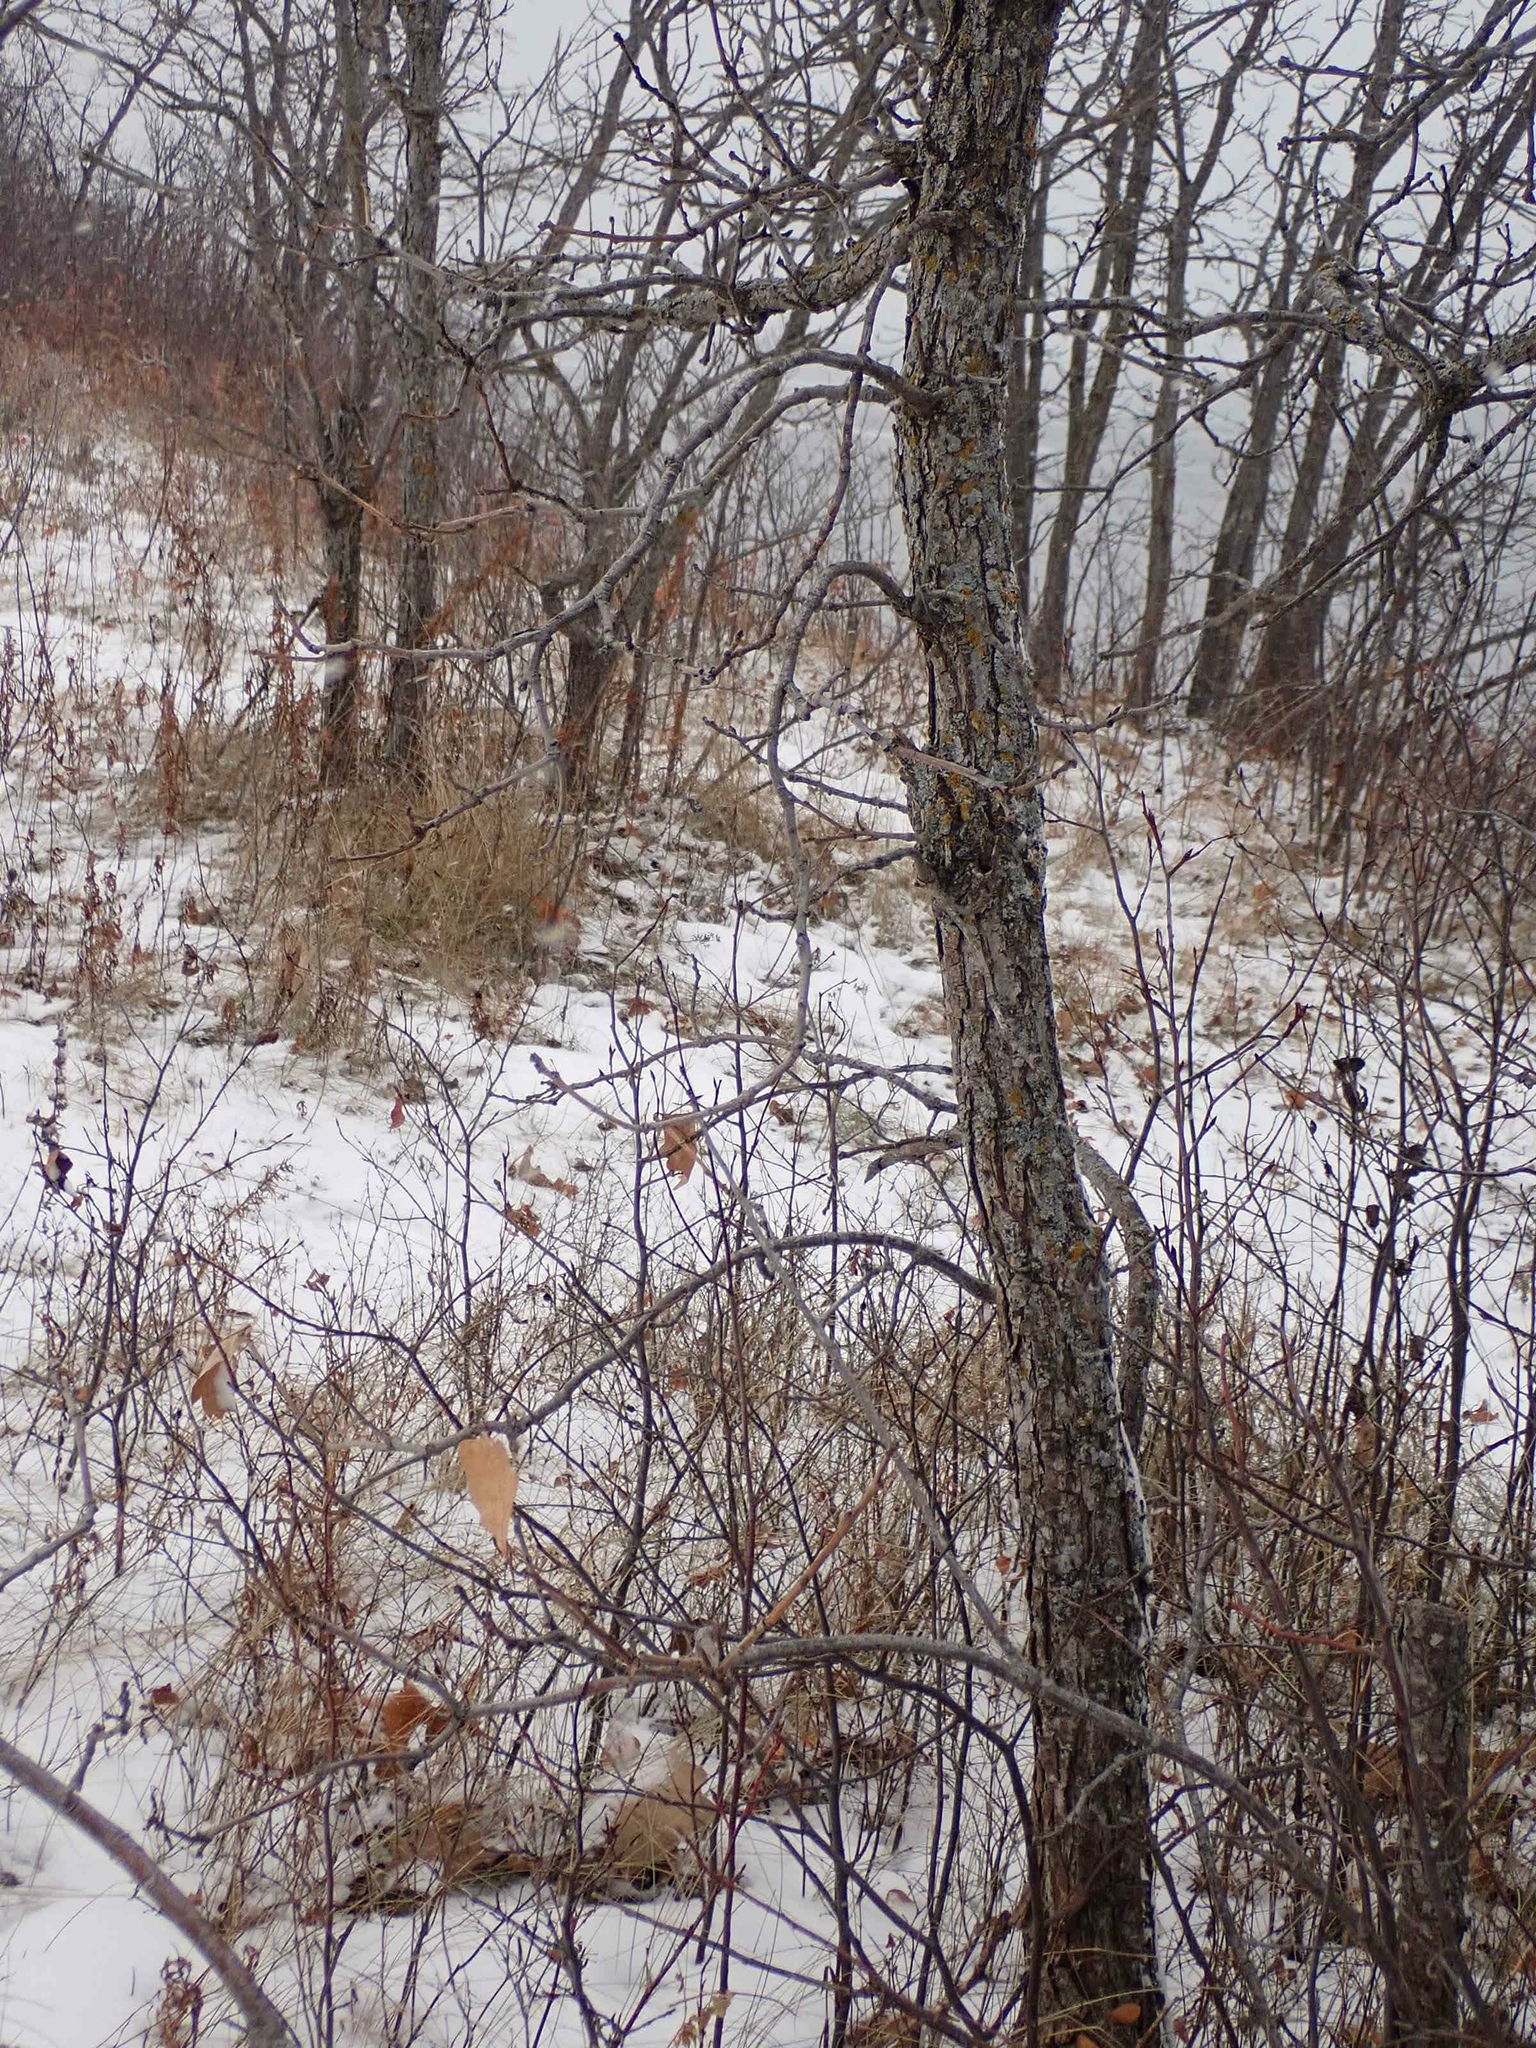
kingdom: Plantae
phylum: Tracheophyta
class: Magnoliopsida
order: Fagales
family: Fagaceae
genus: Quercus
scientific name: Quercus macrocarpa
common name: Bur oak
